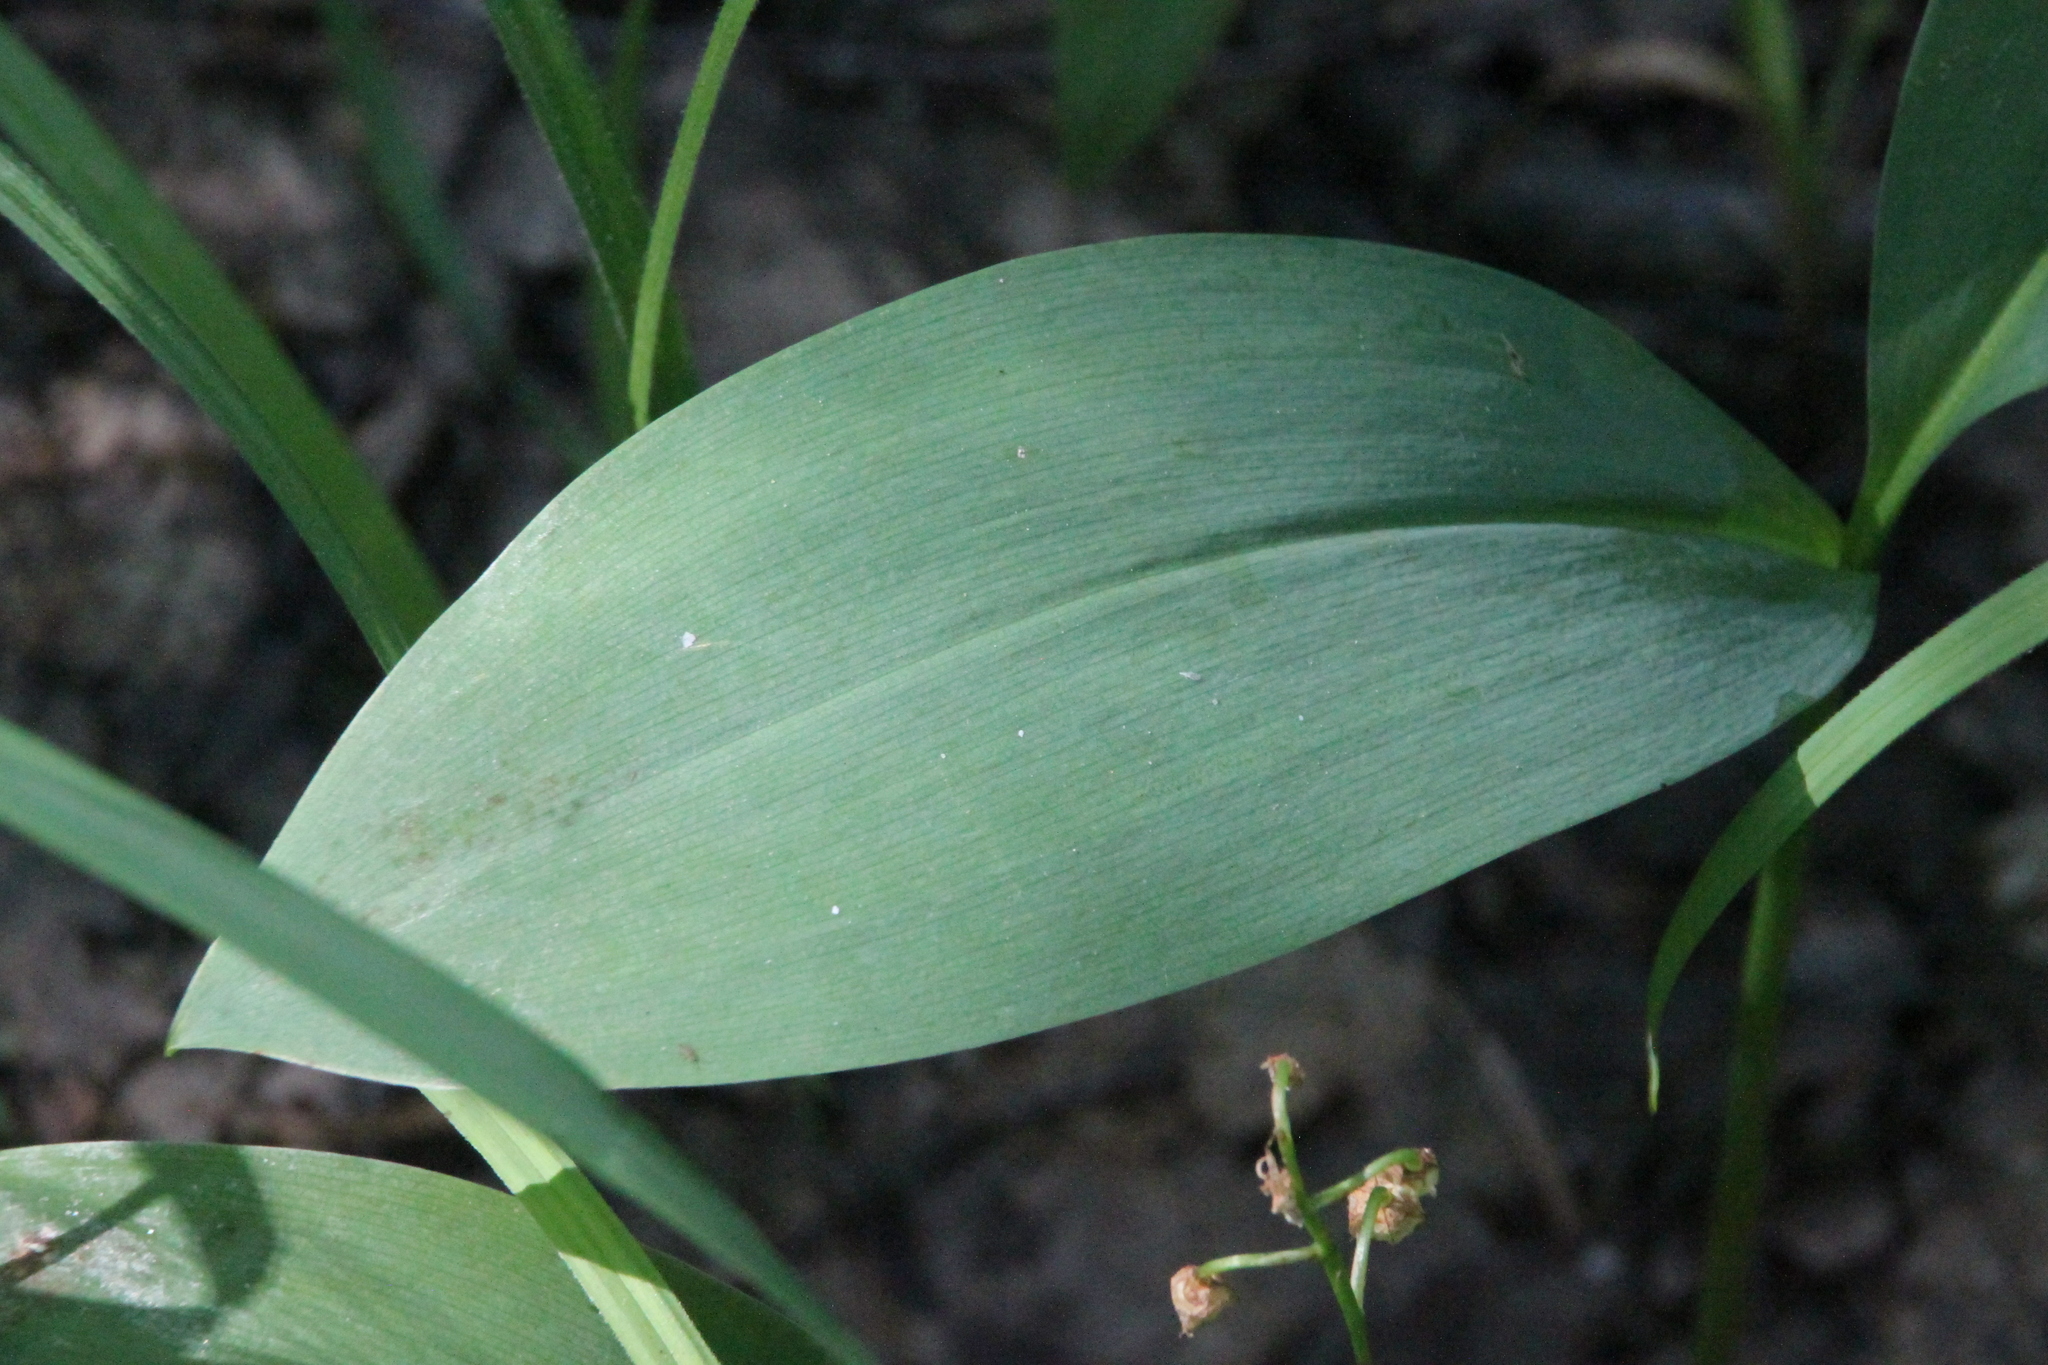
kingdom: Plantae
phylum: Tracheophyta
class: Liliopsida
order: Asparagales
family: Asparagaceae
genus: Convallaria
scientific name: Convallaria majalis
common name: Lily-of-the-valley
